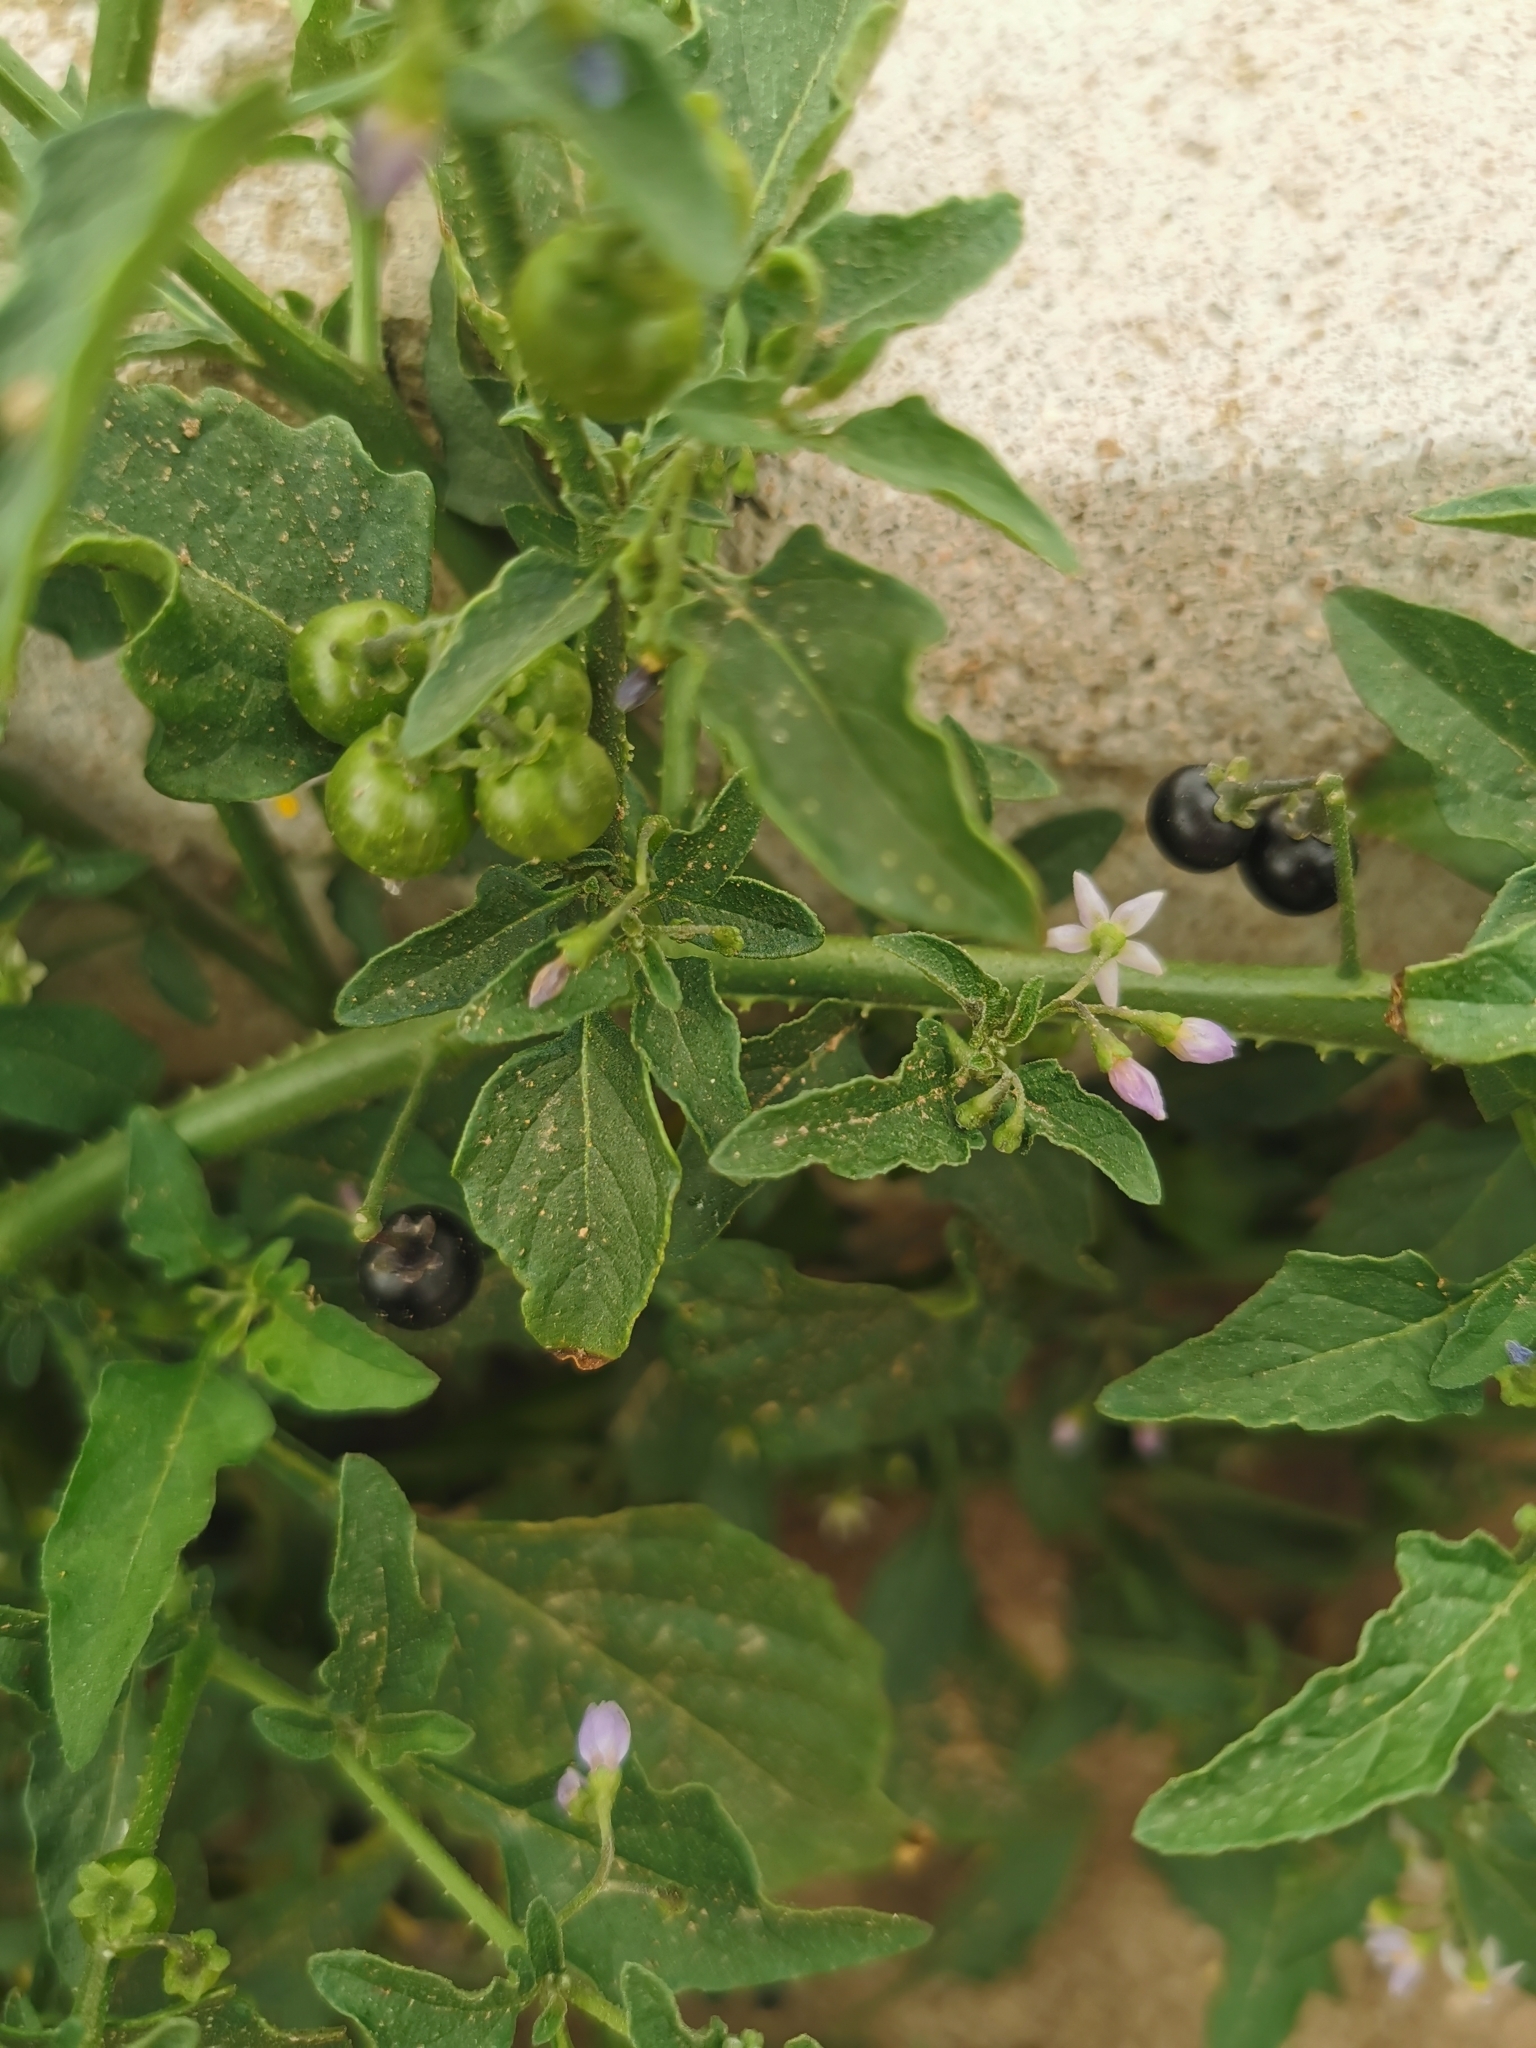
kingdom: Plantae
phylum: Tracheophyta
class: Magnoliopsida
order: Solanales
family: Solanaceae
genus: Solanum
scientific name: Solanum americanum
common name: American black nightshade
